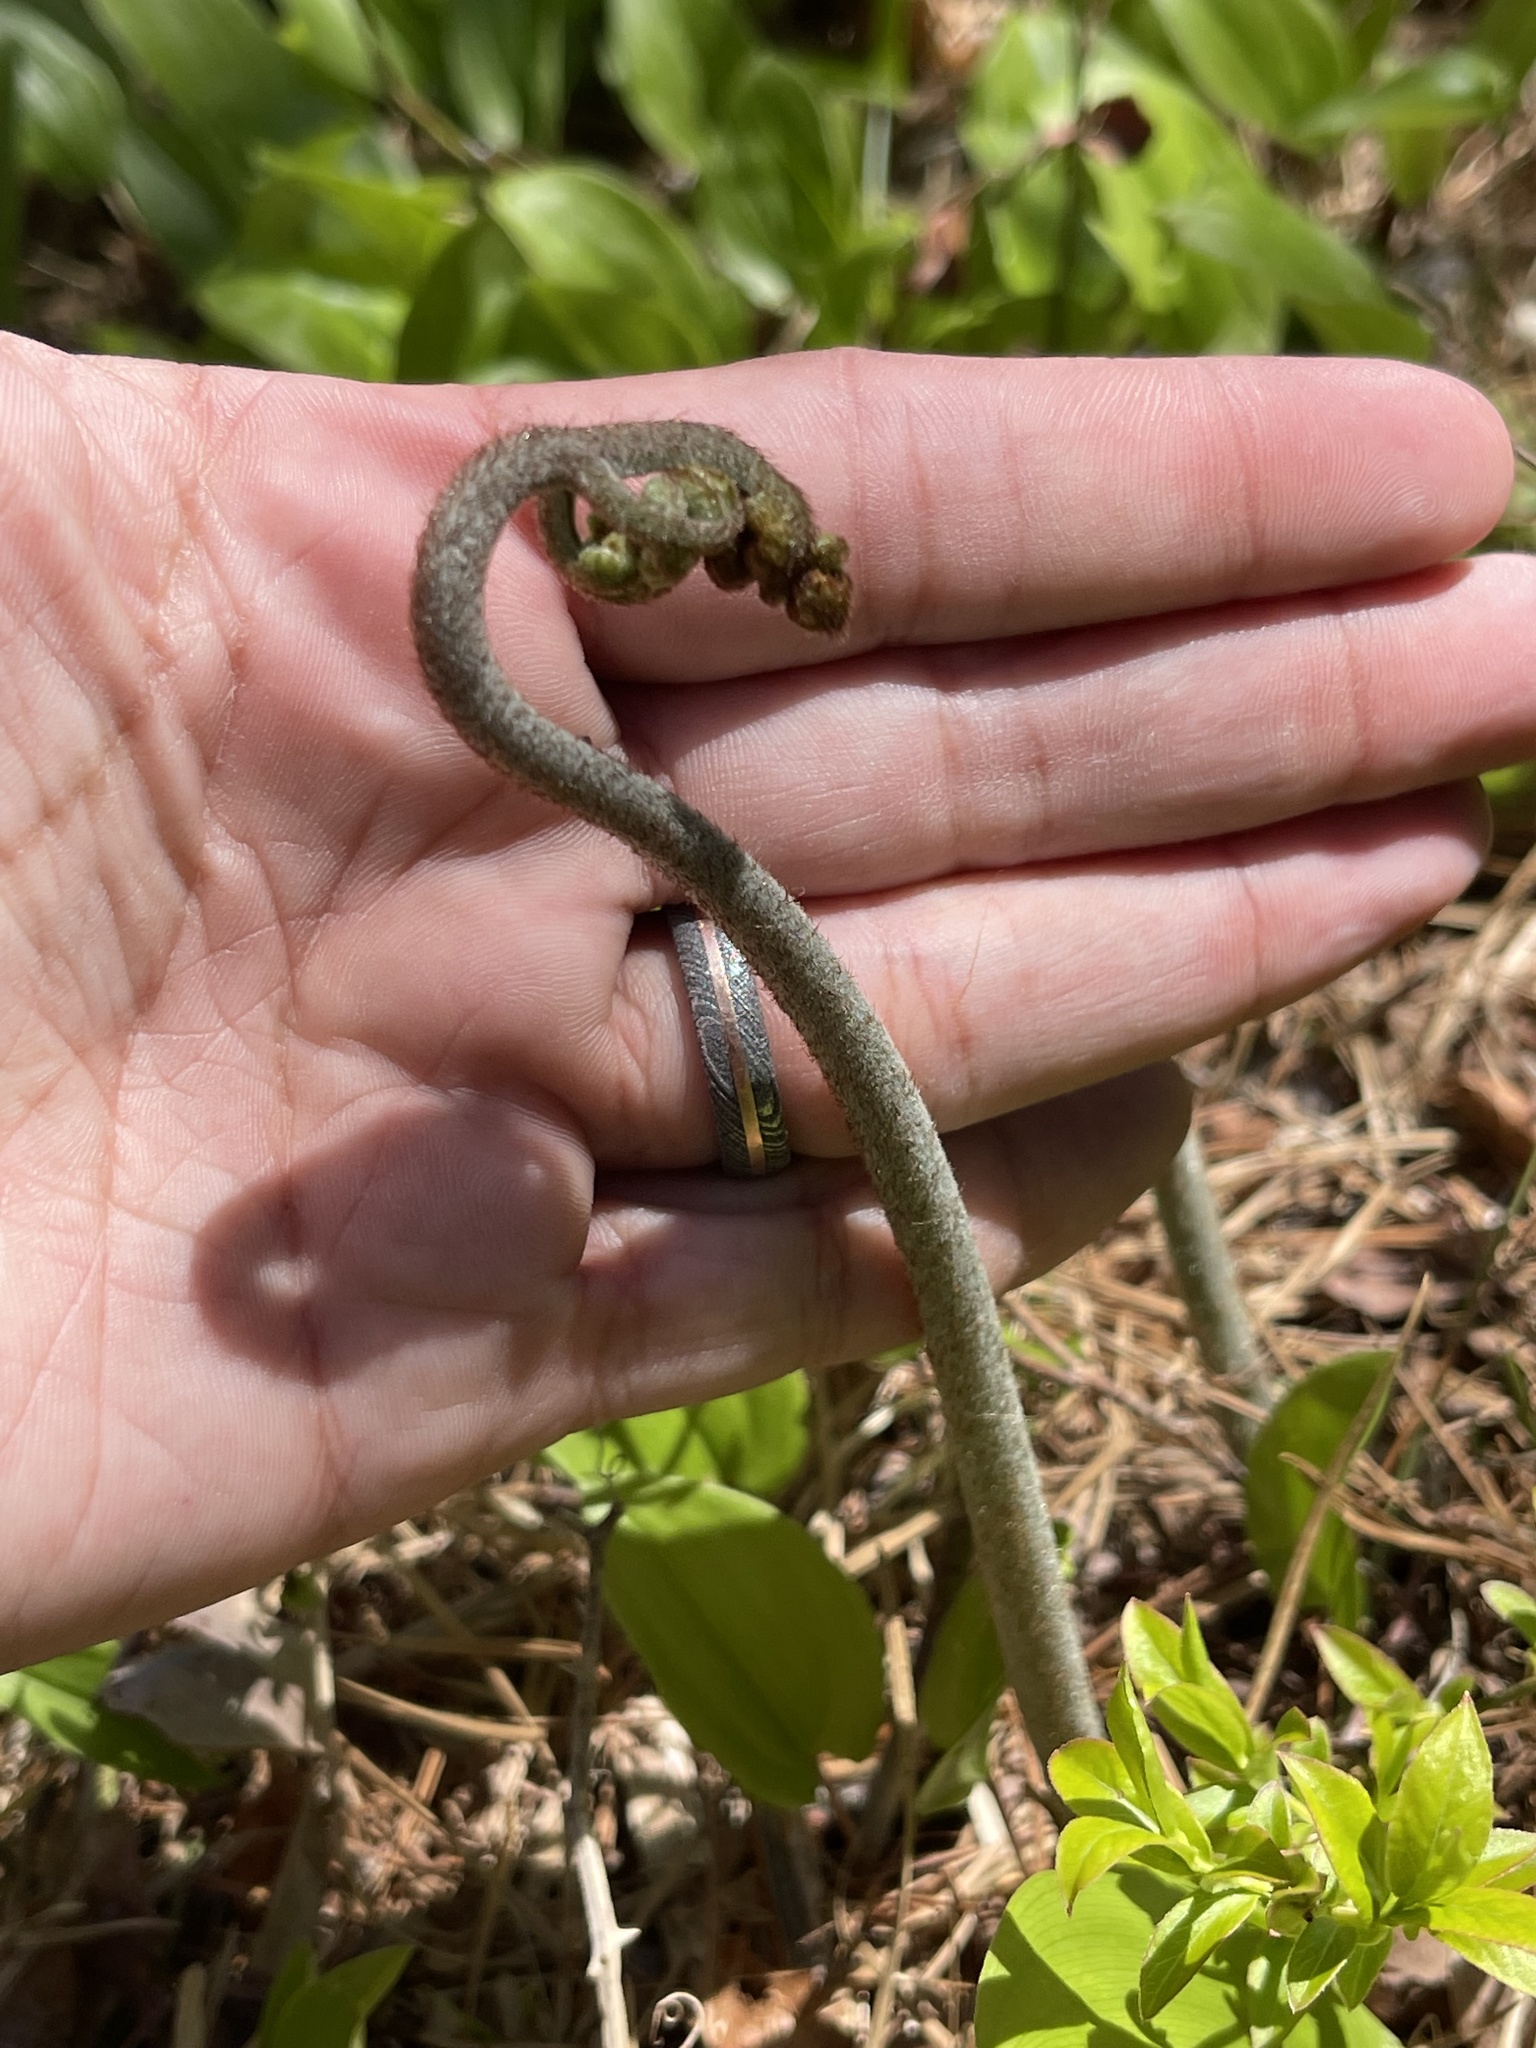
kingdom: Plantae
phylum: Tracheophyta
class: Polypodiopsida
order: Polypodiales
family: Dennstaedtiaceae
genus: Pteridium
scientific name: Pteridium aquilinum
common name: Bracken
